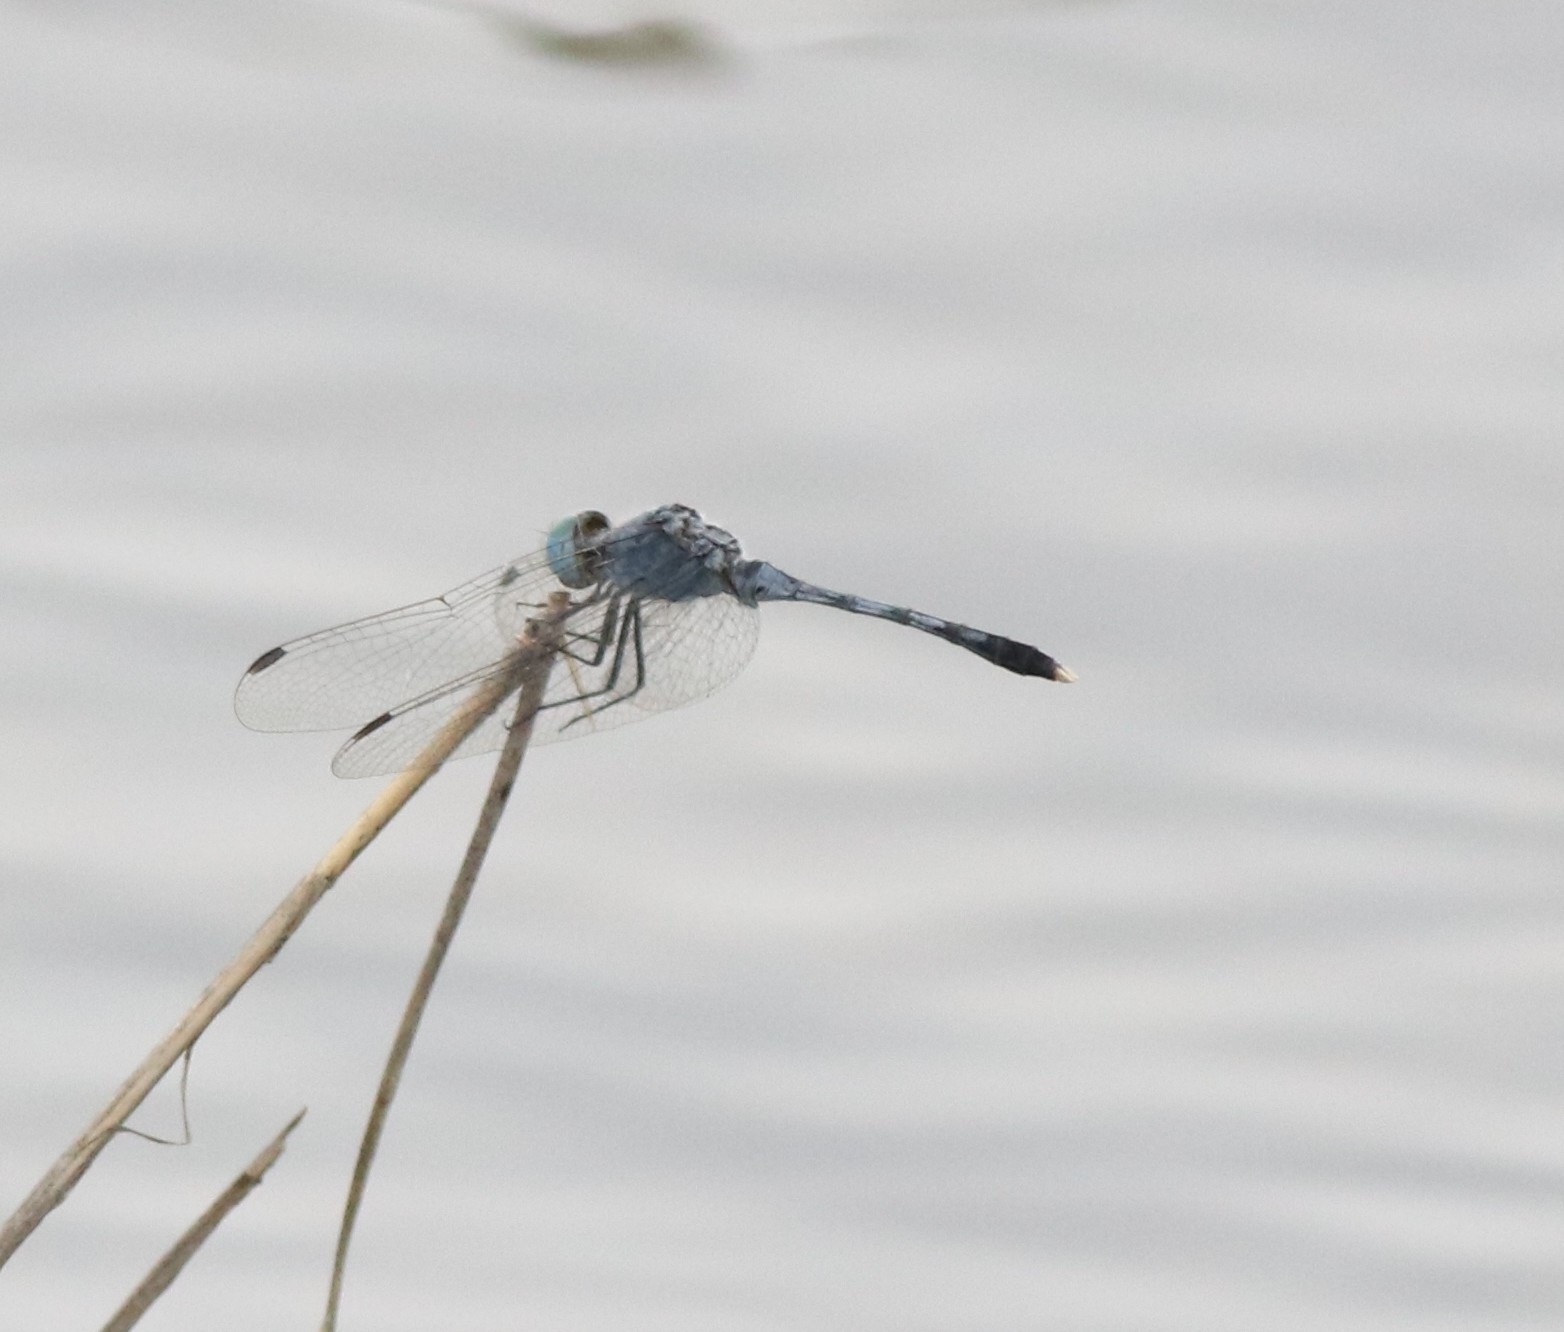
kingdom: Animalia
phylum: Arthropoda
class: Insecta
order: Odonata
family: Libellulidae
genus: Diplacodes
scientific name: Diplacodes trivialis
